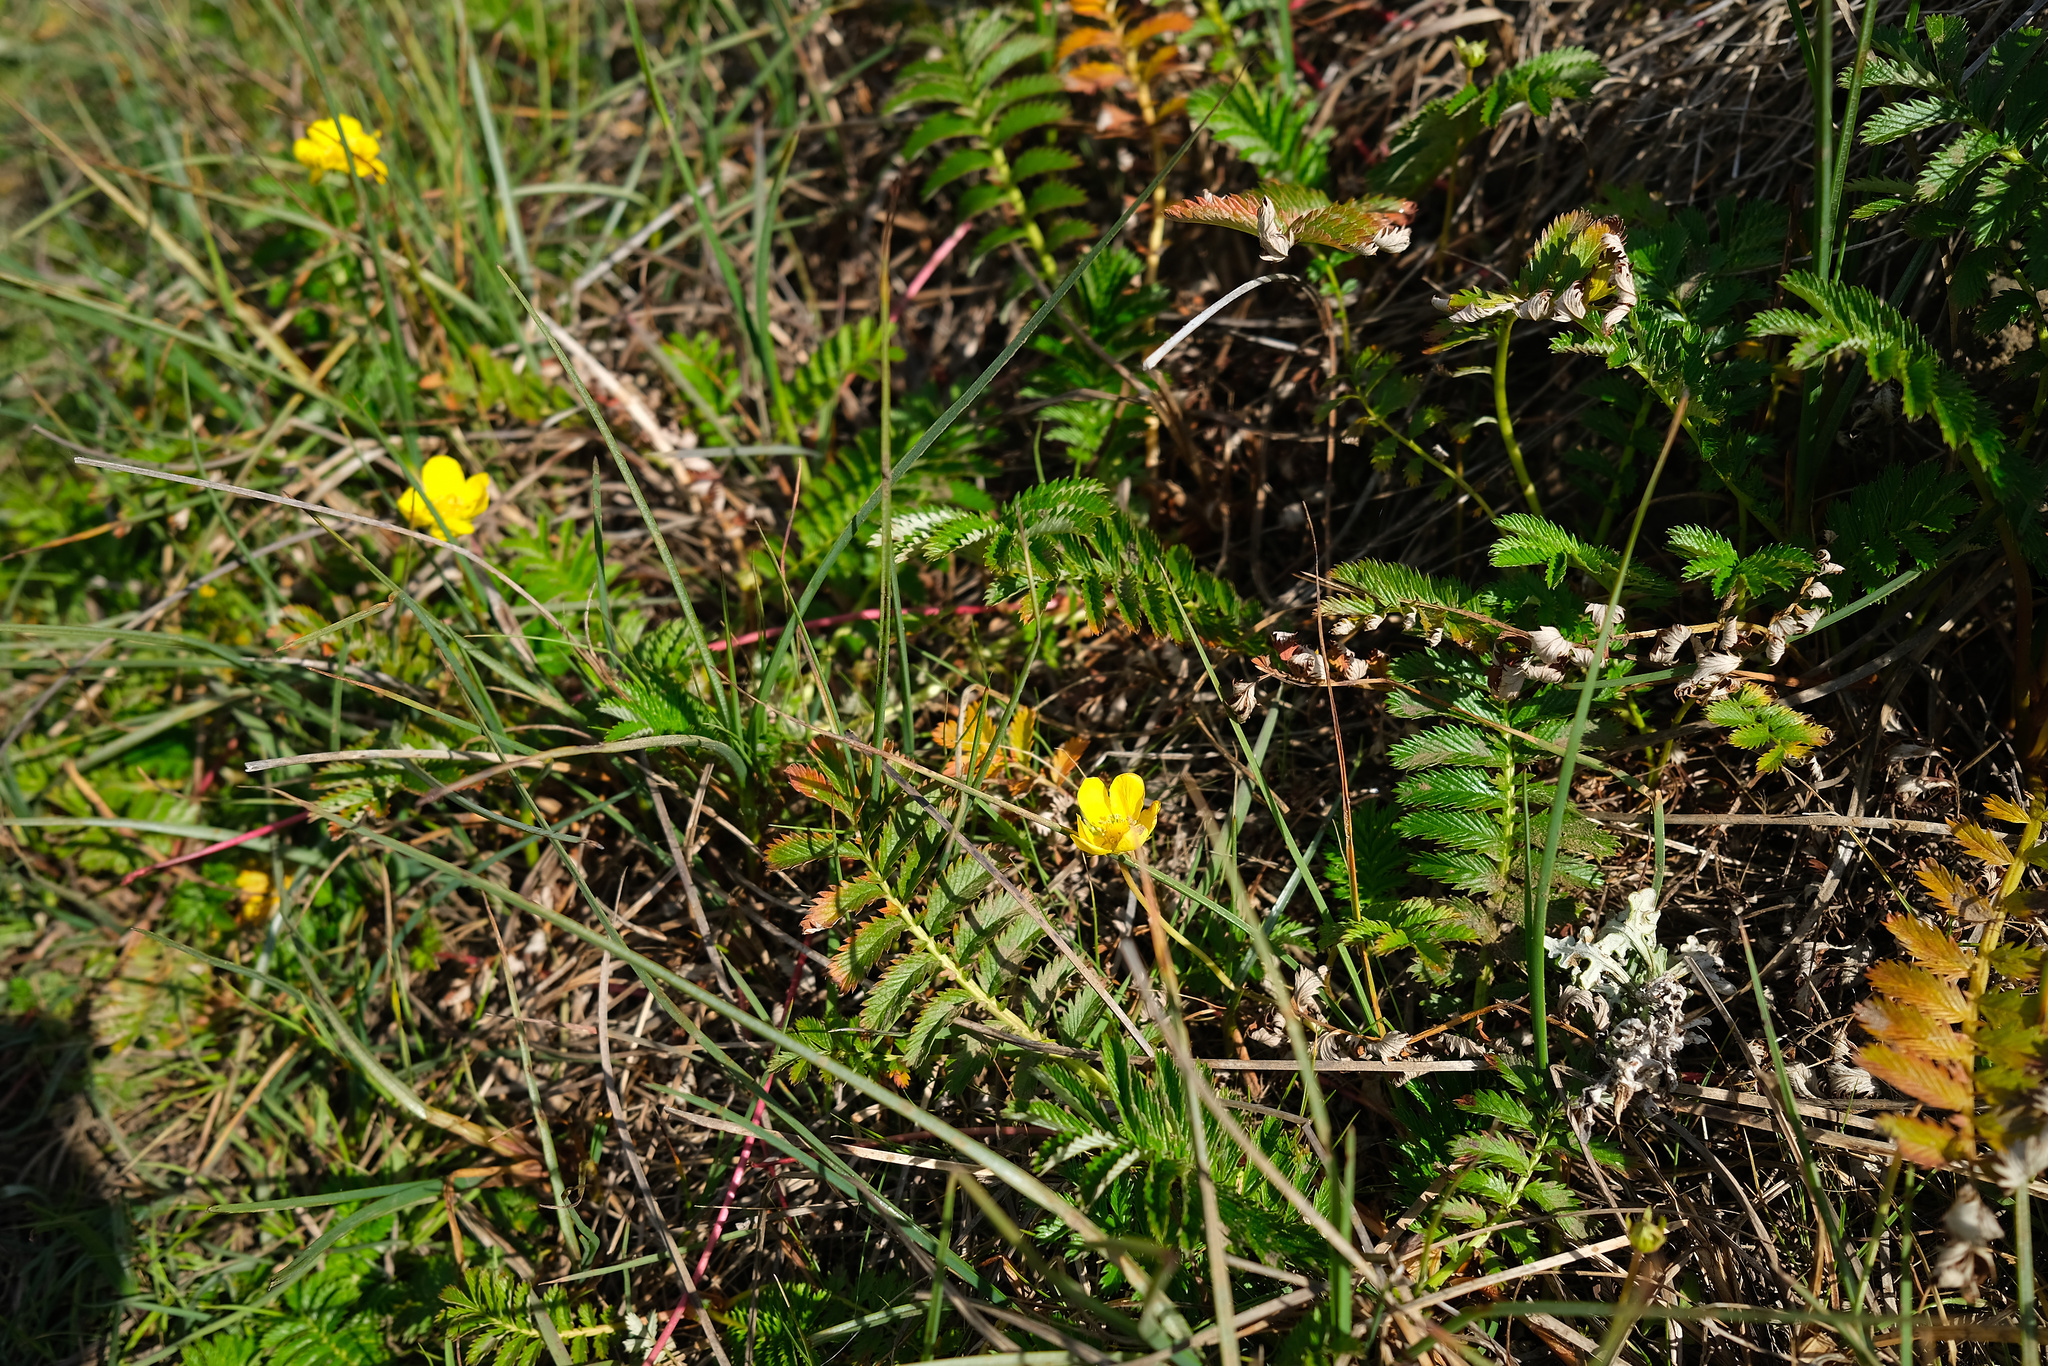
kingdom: Plantae
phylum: Tracheophyta
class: Magnoliopsida
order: Rosales
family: Rosaceae
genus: Argentina
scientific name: Argentina anserina
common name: Common silverweed
